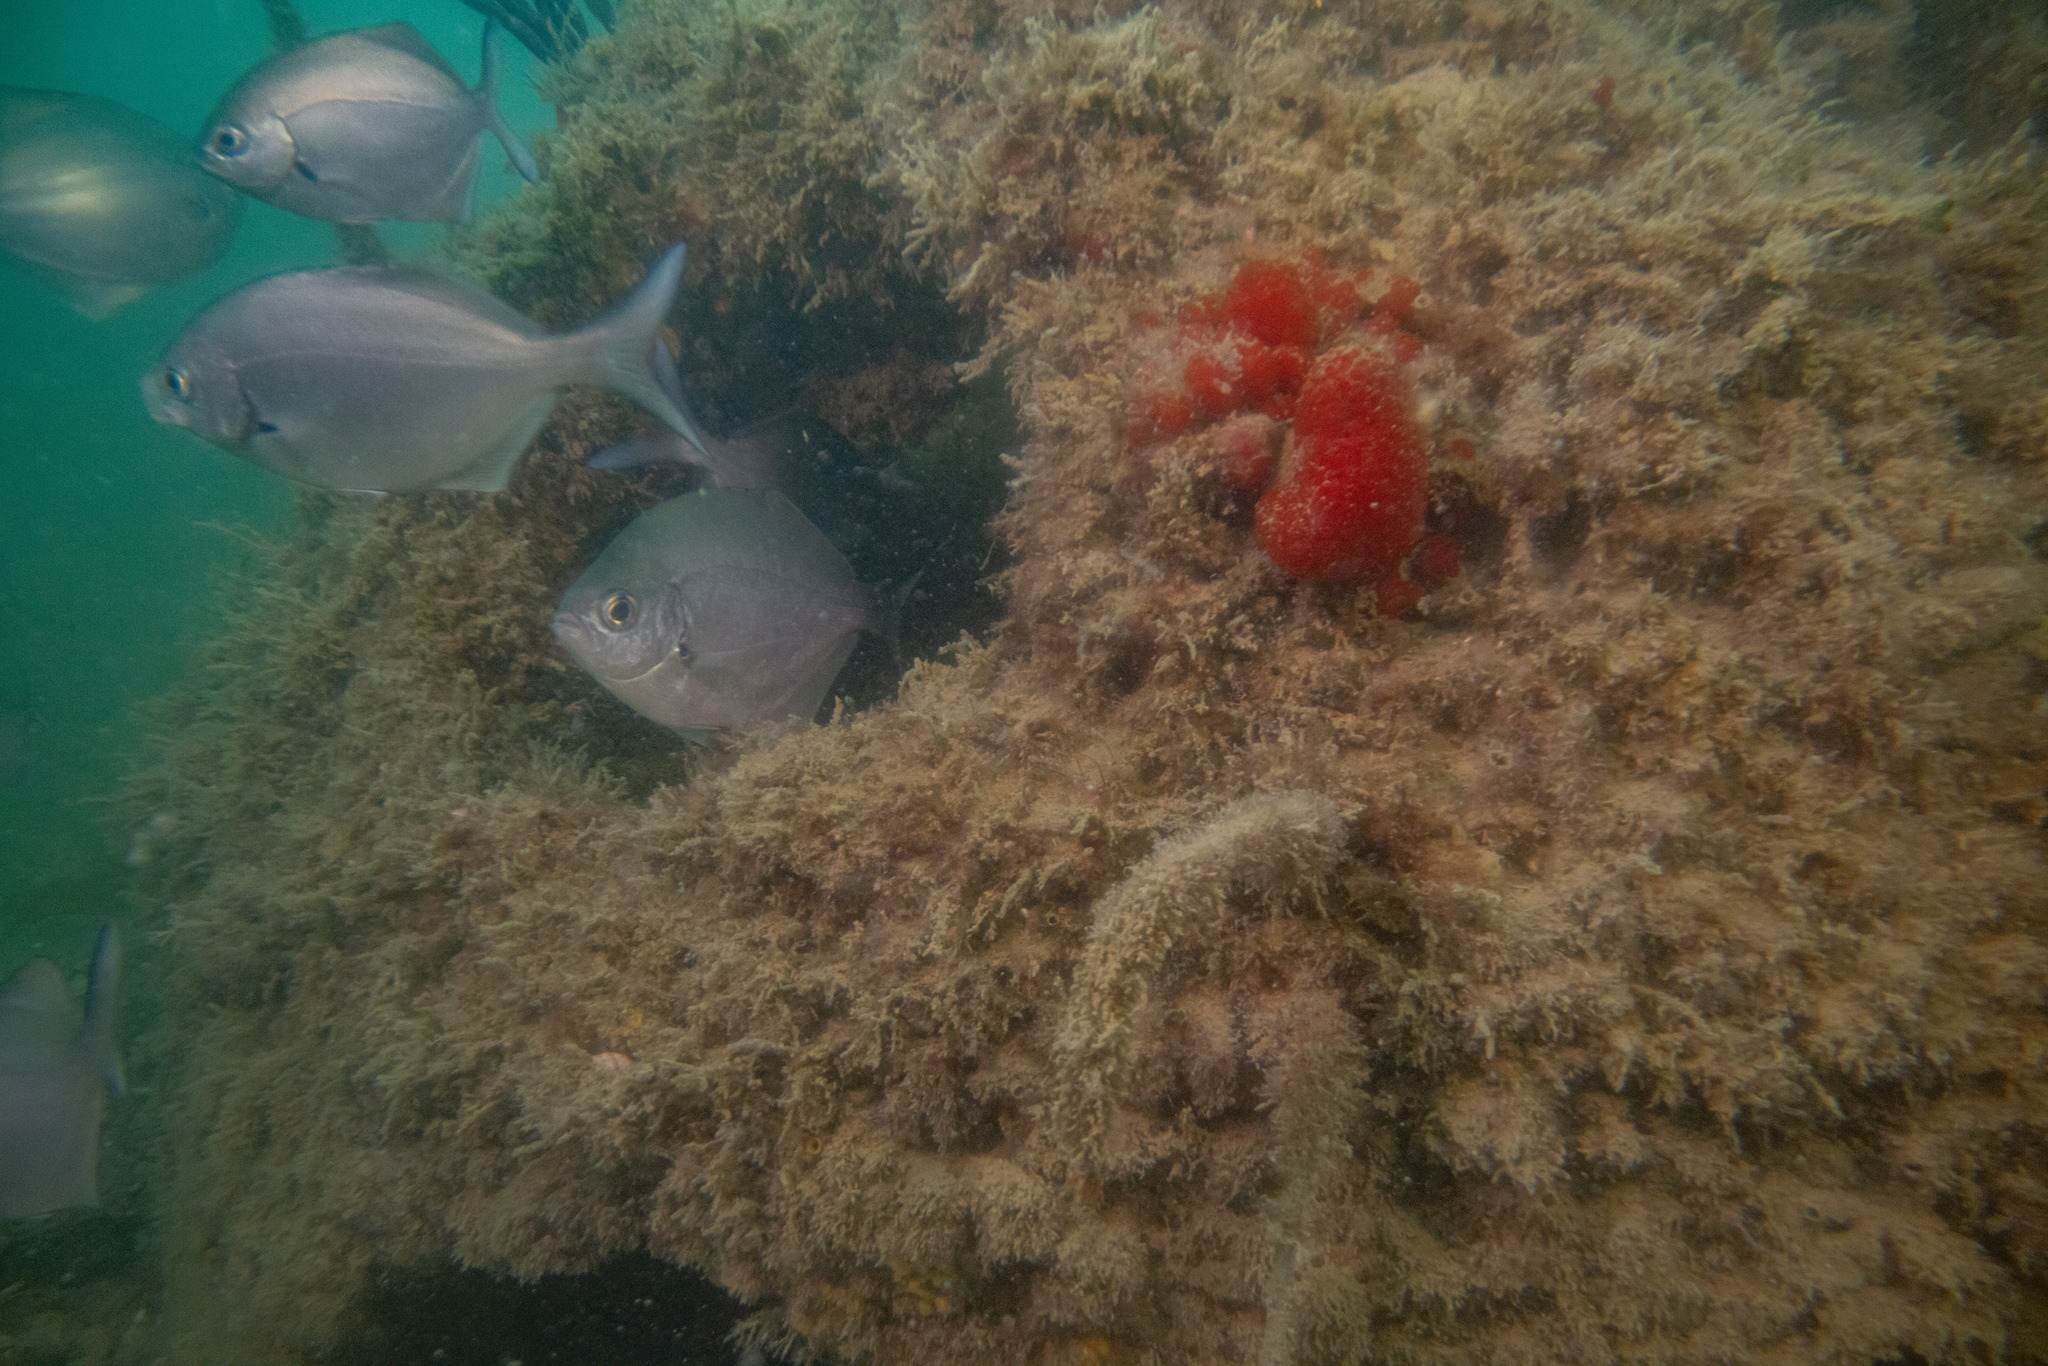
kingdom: Animalia
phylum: Chordata
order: Perciformes
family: Kyphosidae
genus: Scorpis
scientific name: Scorpis lineolata
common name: Sweep
